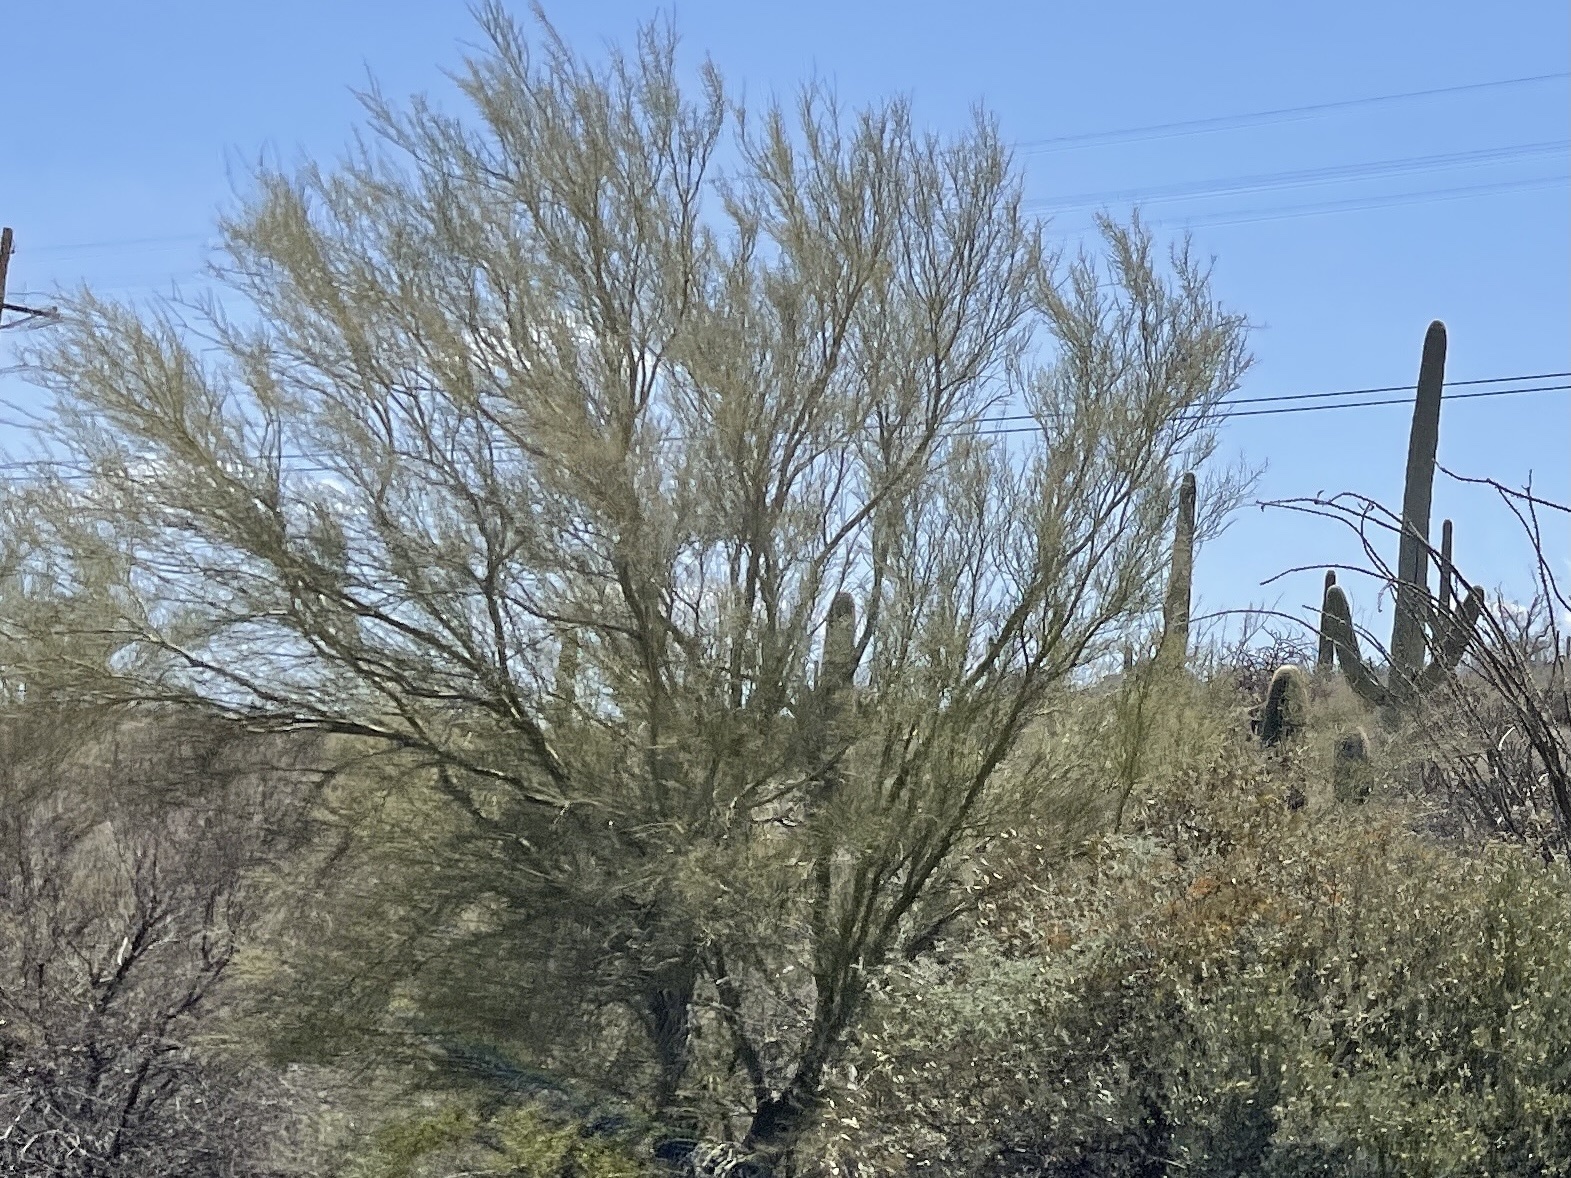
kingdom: Plantae
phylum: Tracheophyta
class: Magnoliopsida
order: Fabales
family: Fabaceae
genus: Parkinsonia
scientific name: Parkinsonia microphylla
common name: Yellow paloverde
